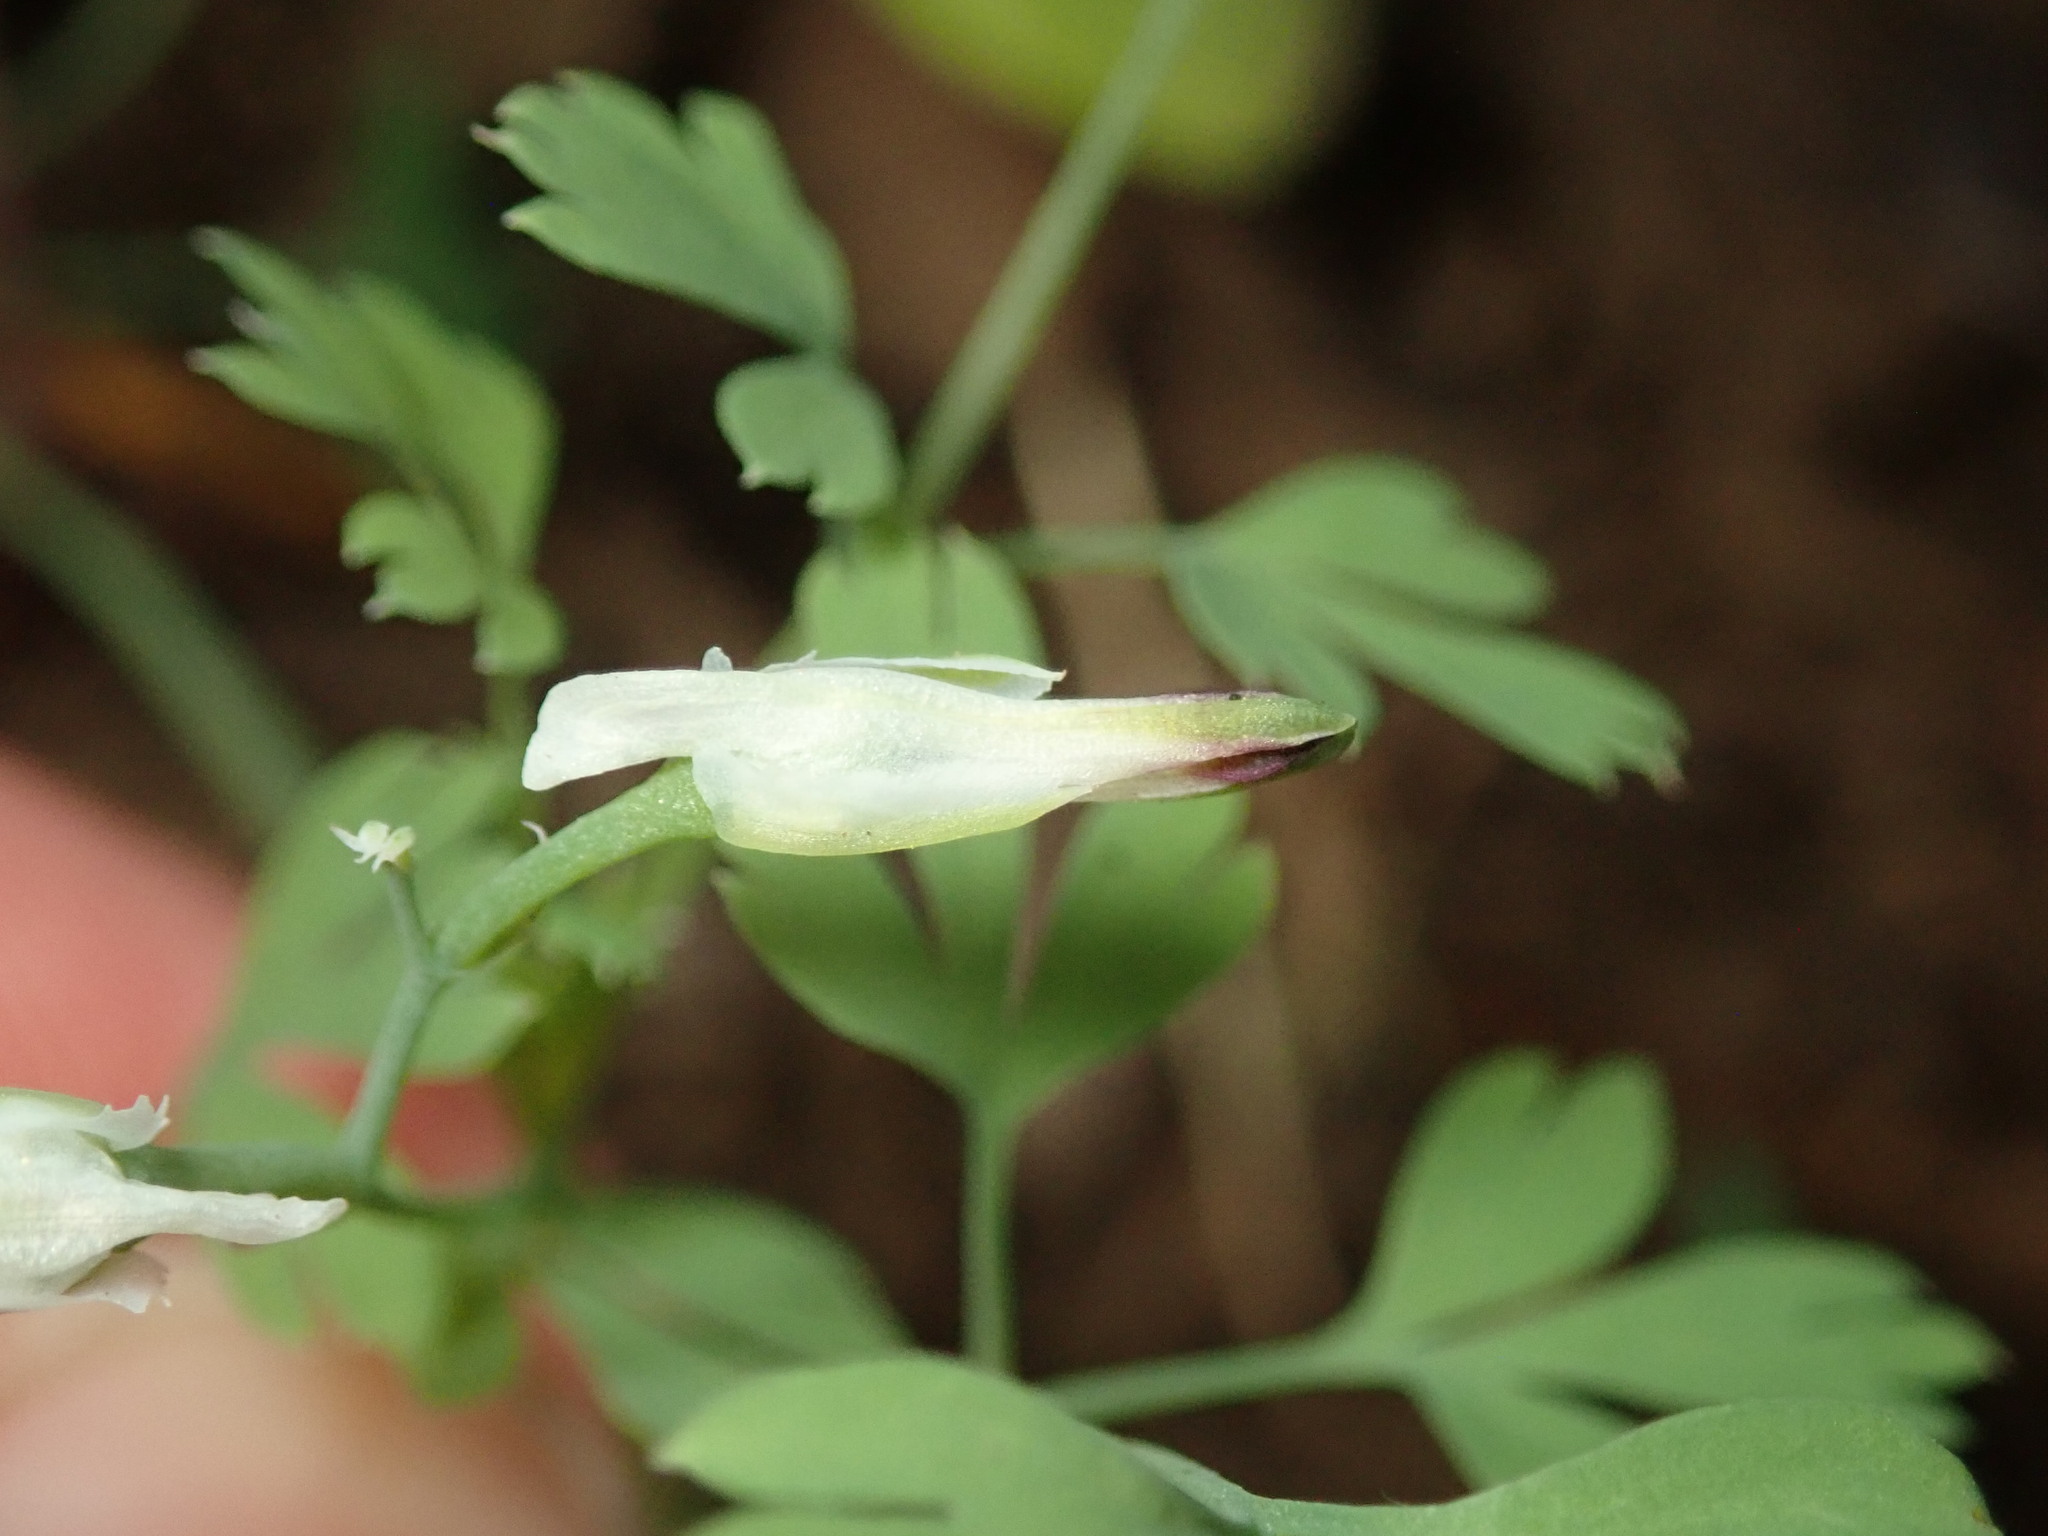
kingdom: Plantae
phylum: Tracheophyta
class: Magnoliopsida
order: Ranunculales
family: Papaveraceae
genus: Fumaria
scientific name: Fumaria capreolata
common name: White ramping-fumitory
